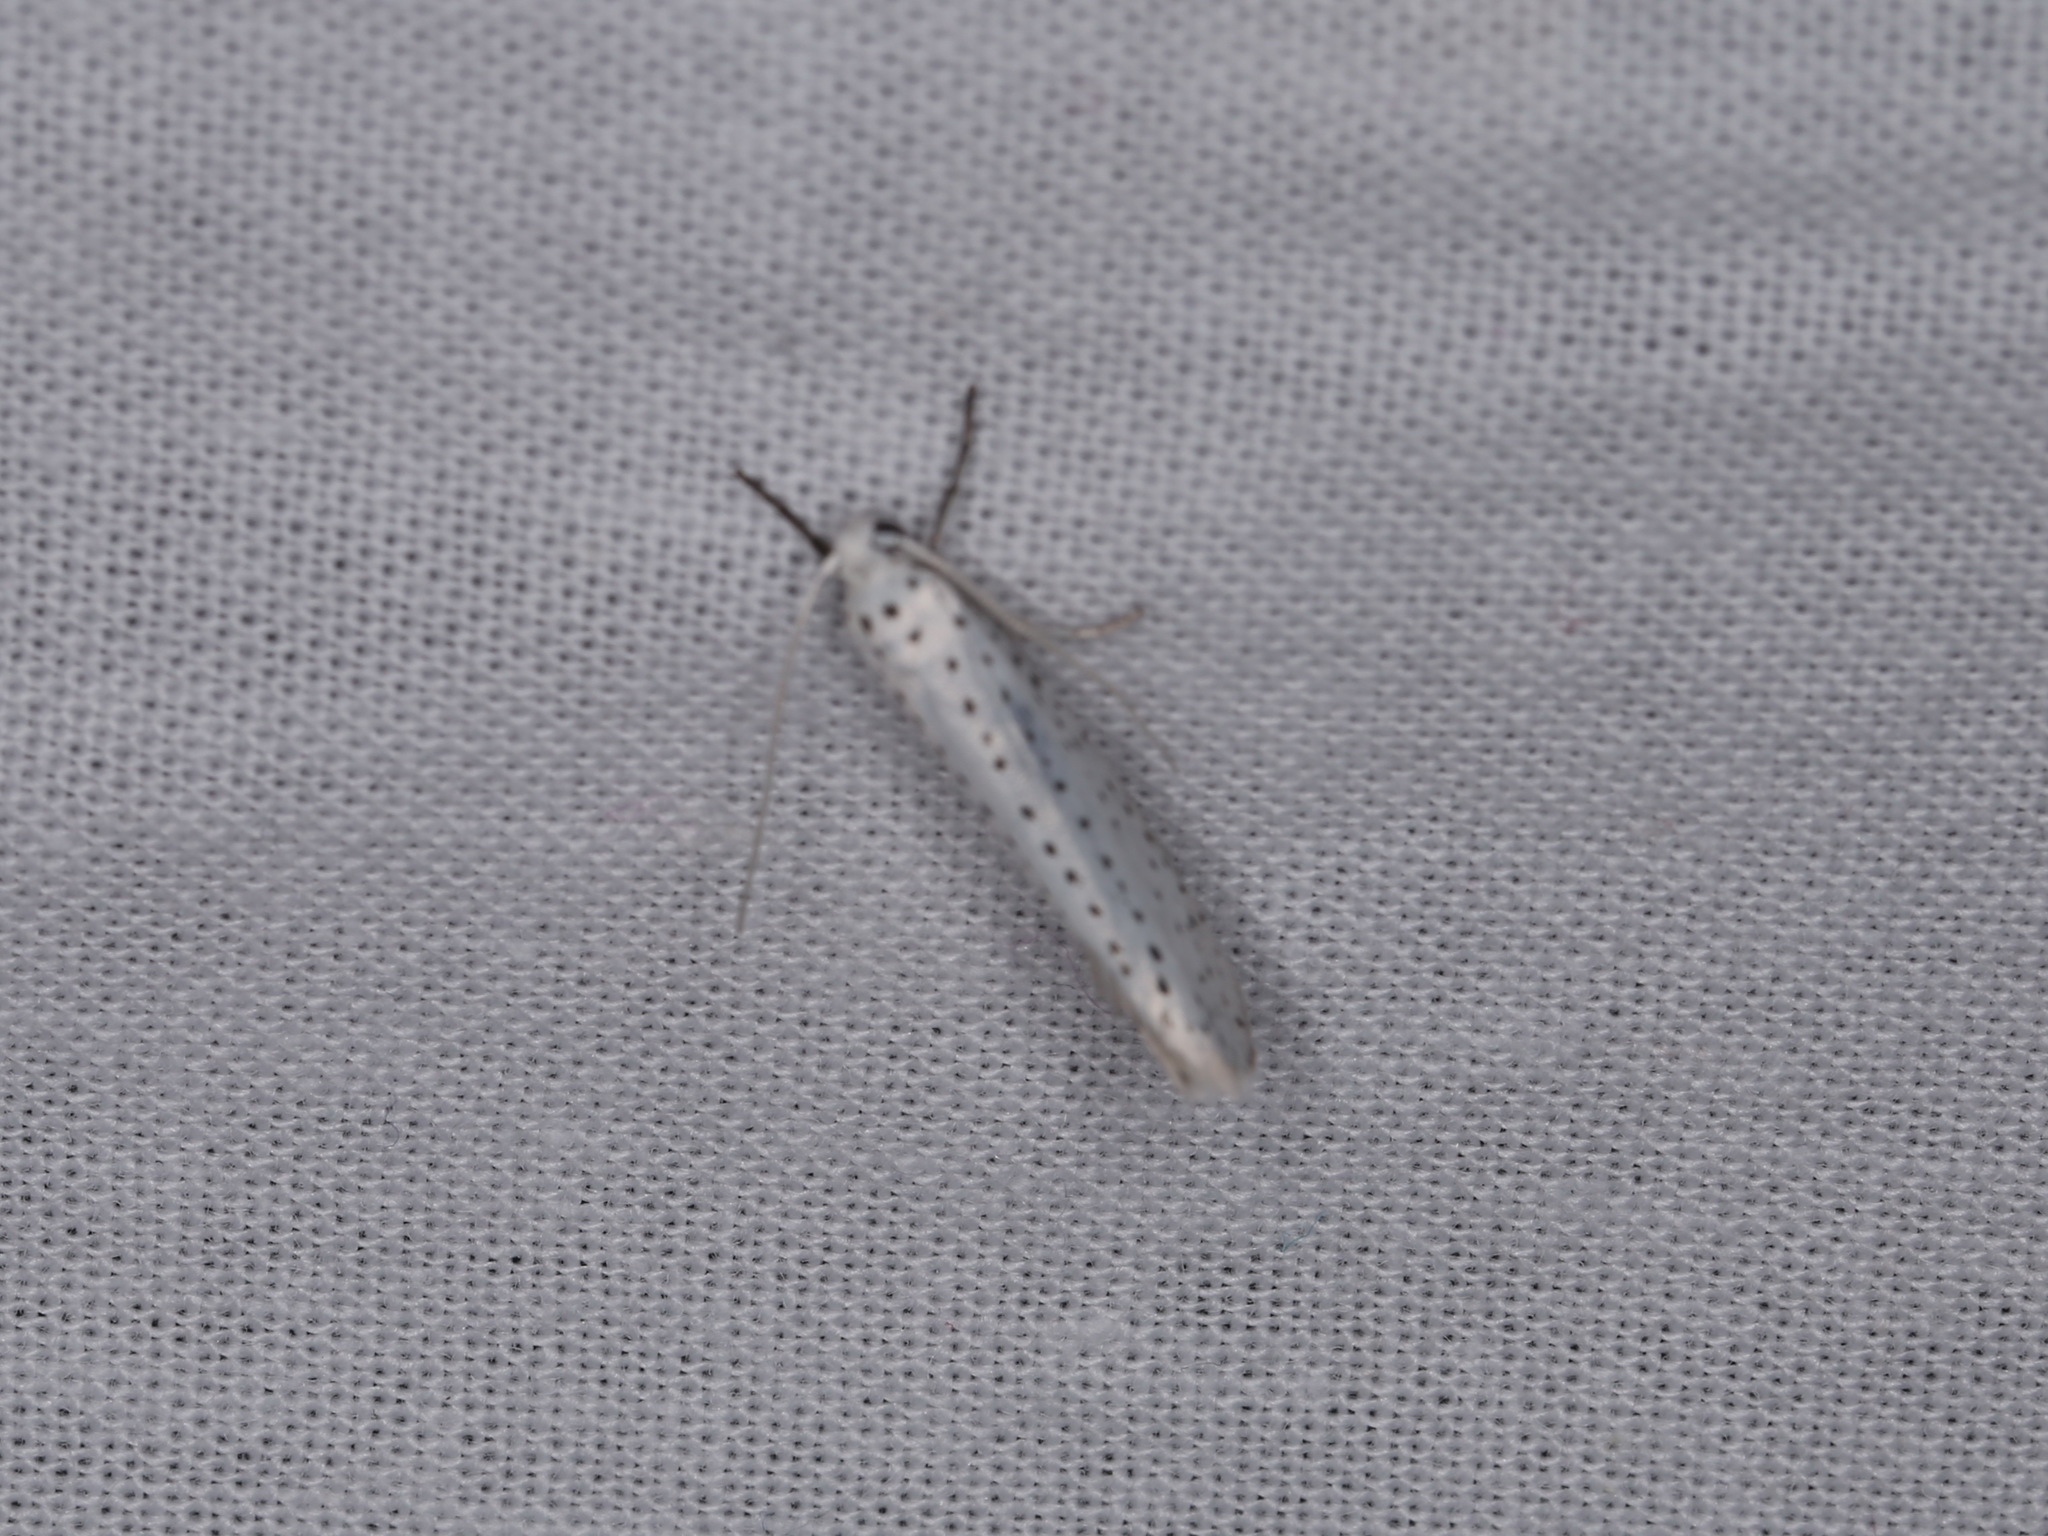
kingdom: Animalia
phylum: Arthropoda
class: Insecta
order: Lepidoptera
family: Yponomeutidae
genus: Yponomeuta
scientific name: Yponomeuta evonymella
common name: Bird-cherry ermine
